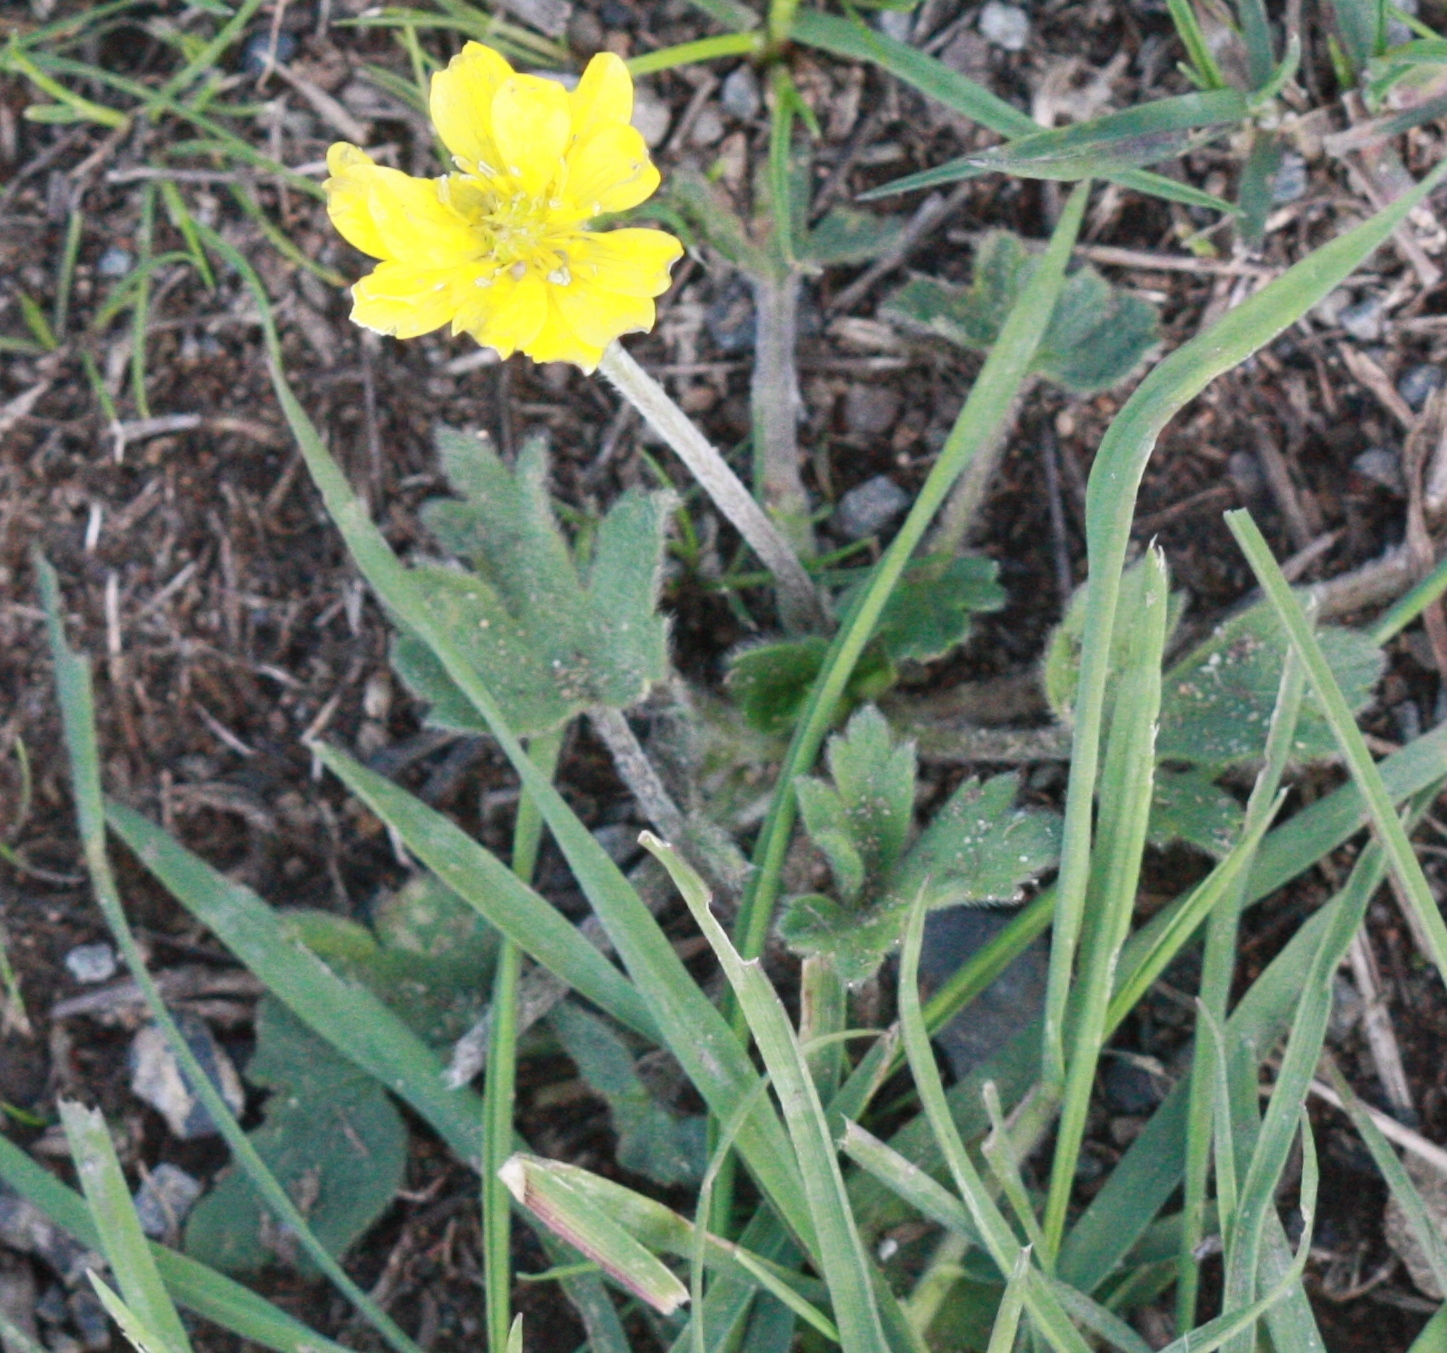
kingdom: Plantae
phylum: Tracheophyta
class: Magnoliopsida
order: Ranunculales
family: Ranunculaceae
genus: Ranunculus
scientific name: Ranunculus muricatus
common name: Rough-fruited buttercup
